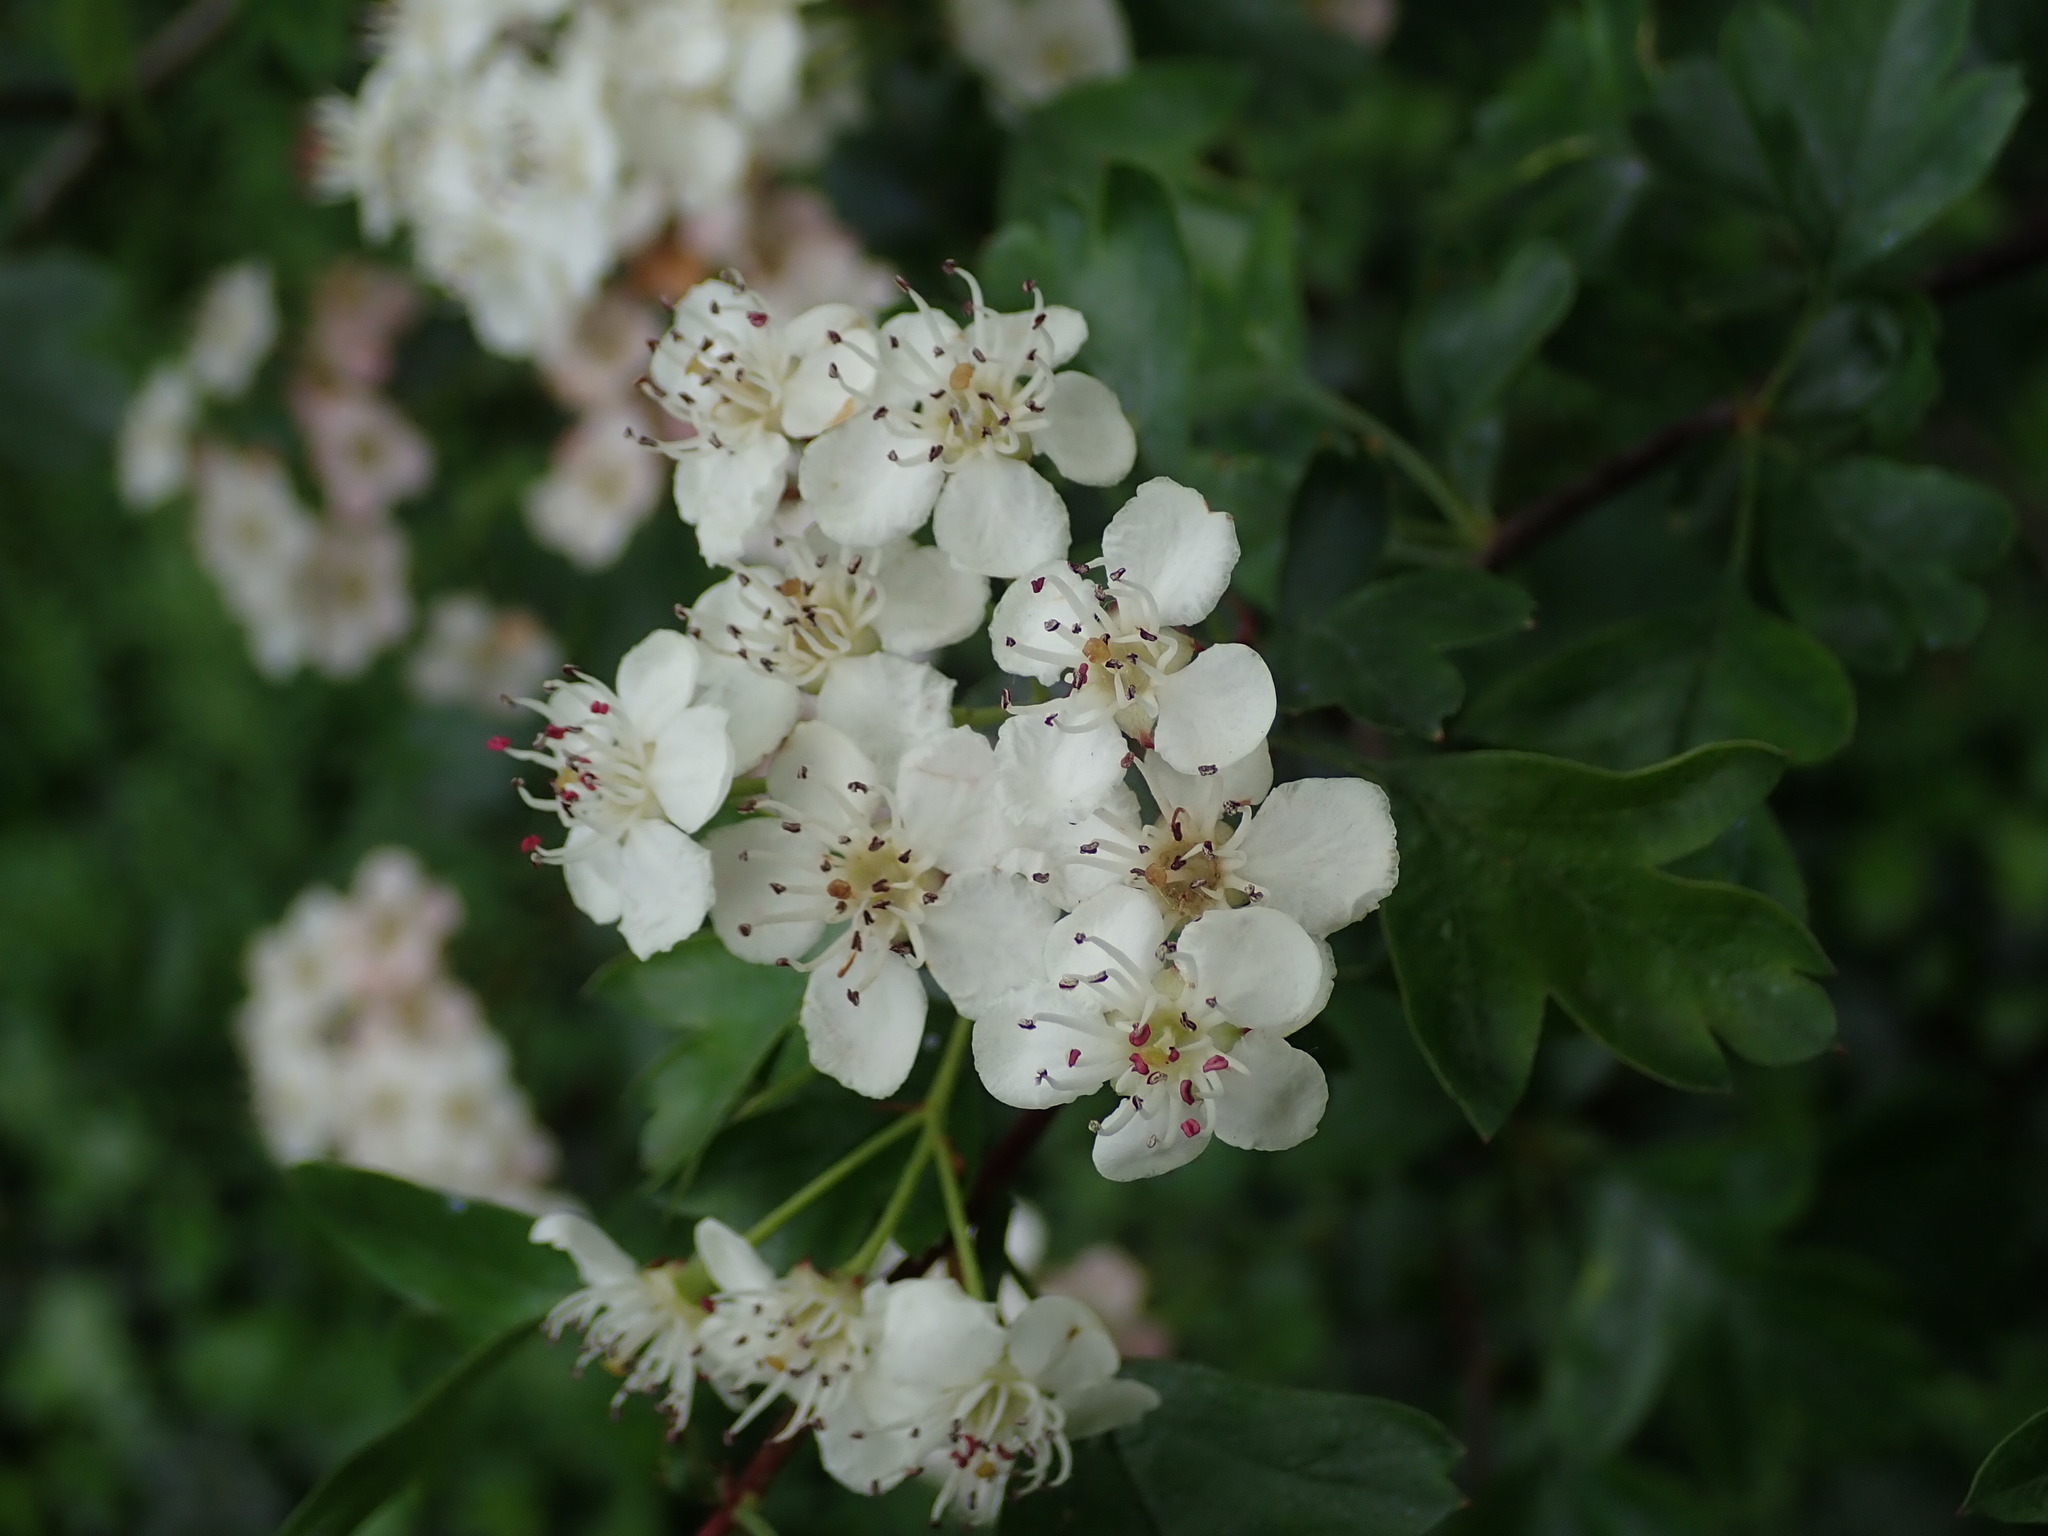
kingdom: Plantae
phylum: Tracheophyta
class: Magnoliopsida
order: Rosales
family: Rosaceae
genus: Crataegus
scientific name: Crataegus monogyna
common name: Hawthorn
